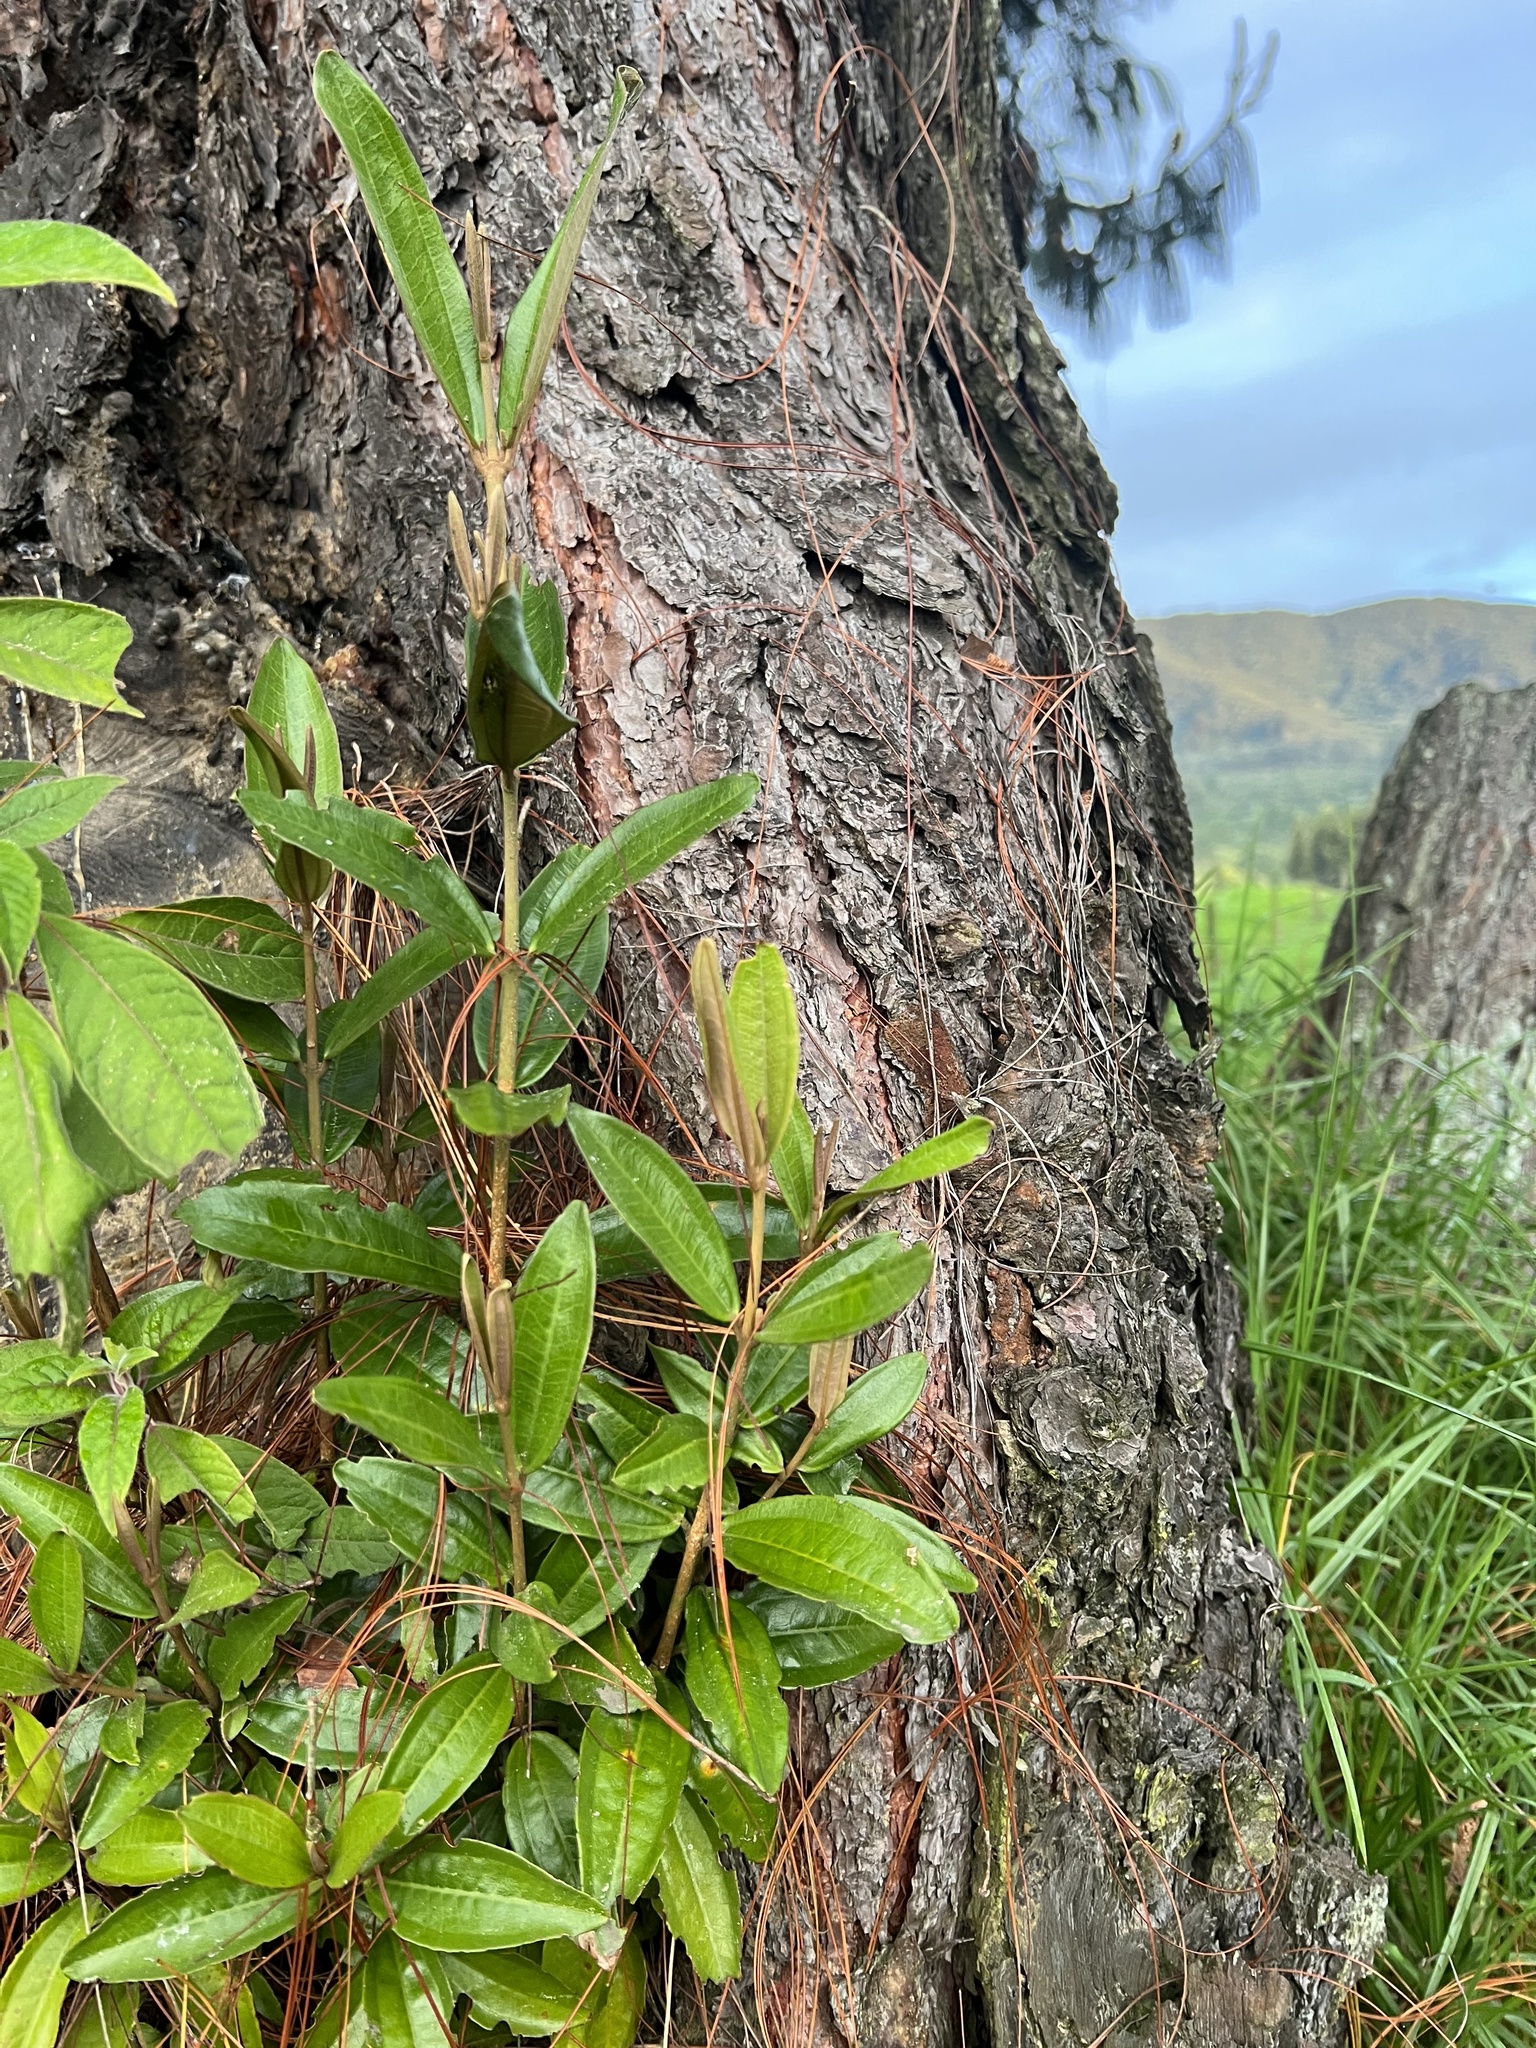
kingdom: Plantae
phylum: Tracheophyta
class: Magnoliopsida
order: Myrtales
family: Melastomataceae
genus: Miconia
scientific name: Miconia squamulosa
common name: Squamulose maya
